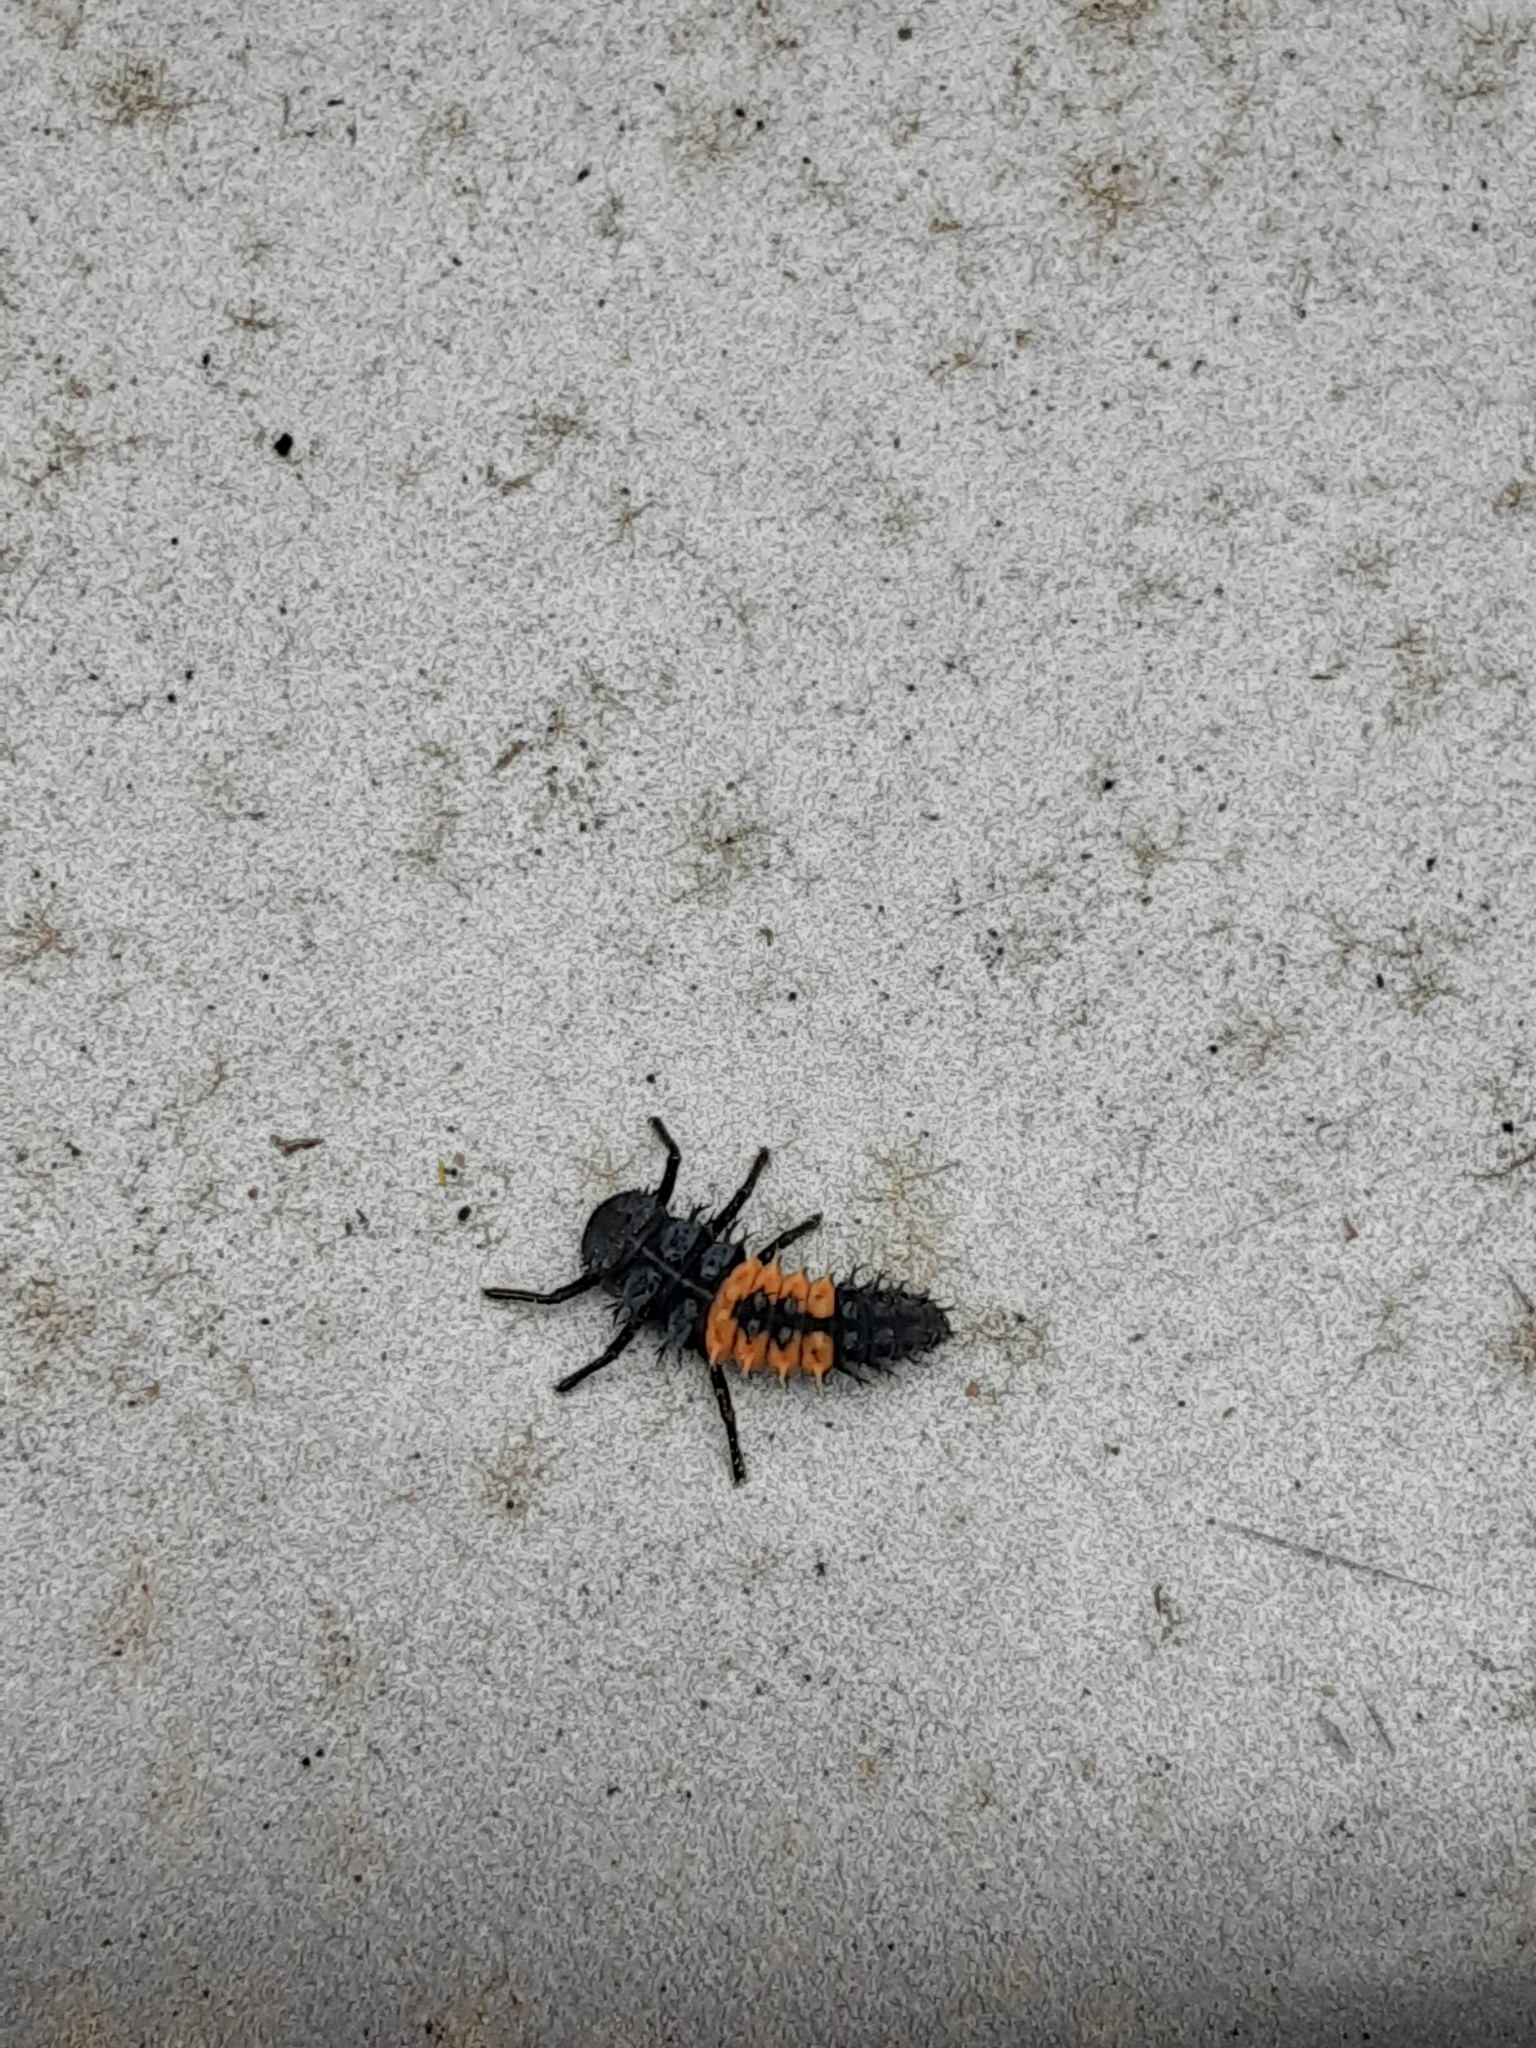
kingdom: Animalia
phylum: Arthropoda
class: Insecta
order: Coleoptera
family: Coccinellidae
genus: Harmonia
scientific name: Harmonia axyridis
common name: Harlequin ladybird
